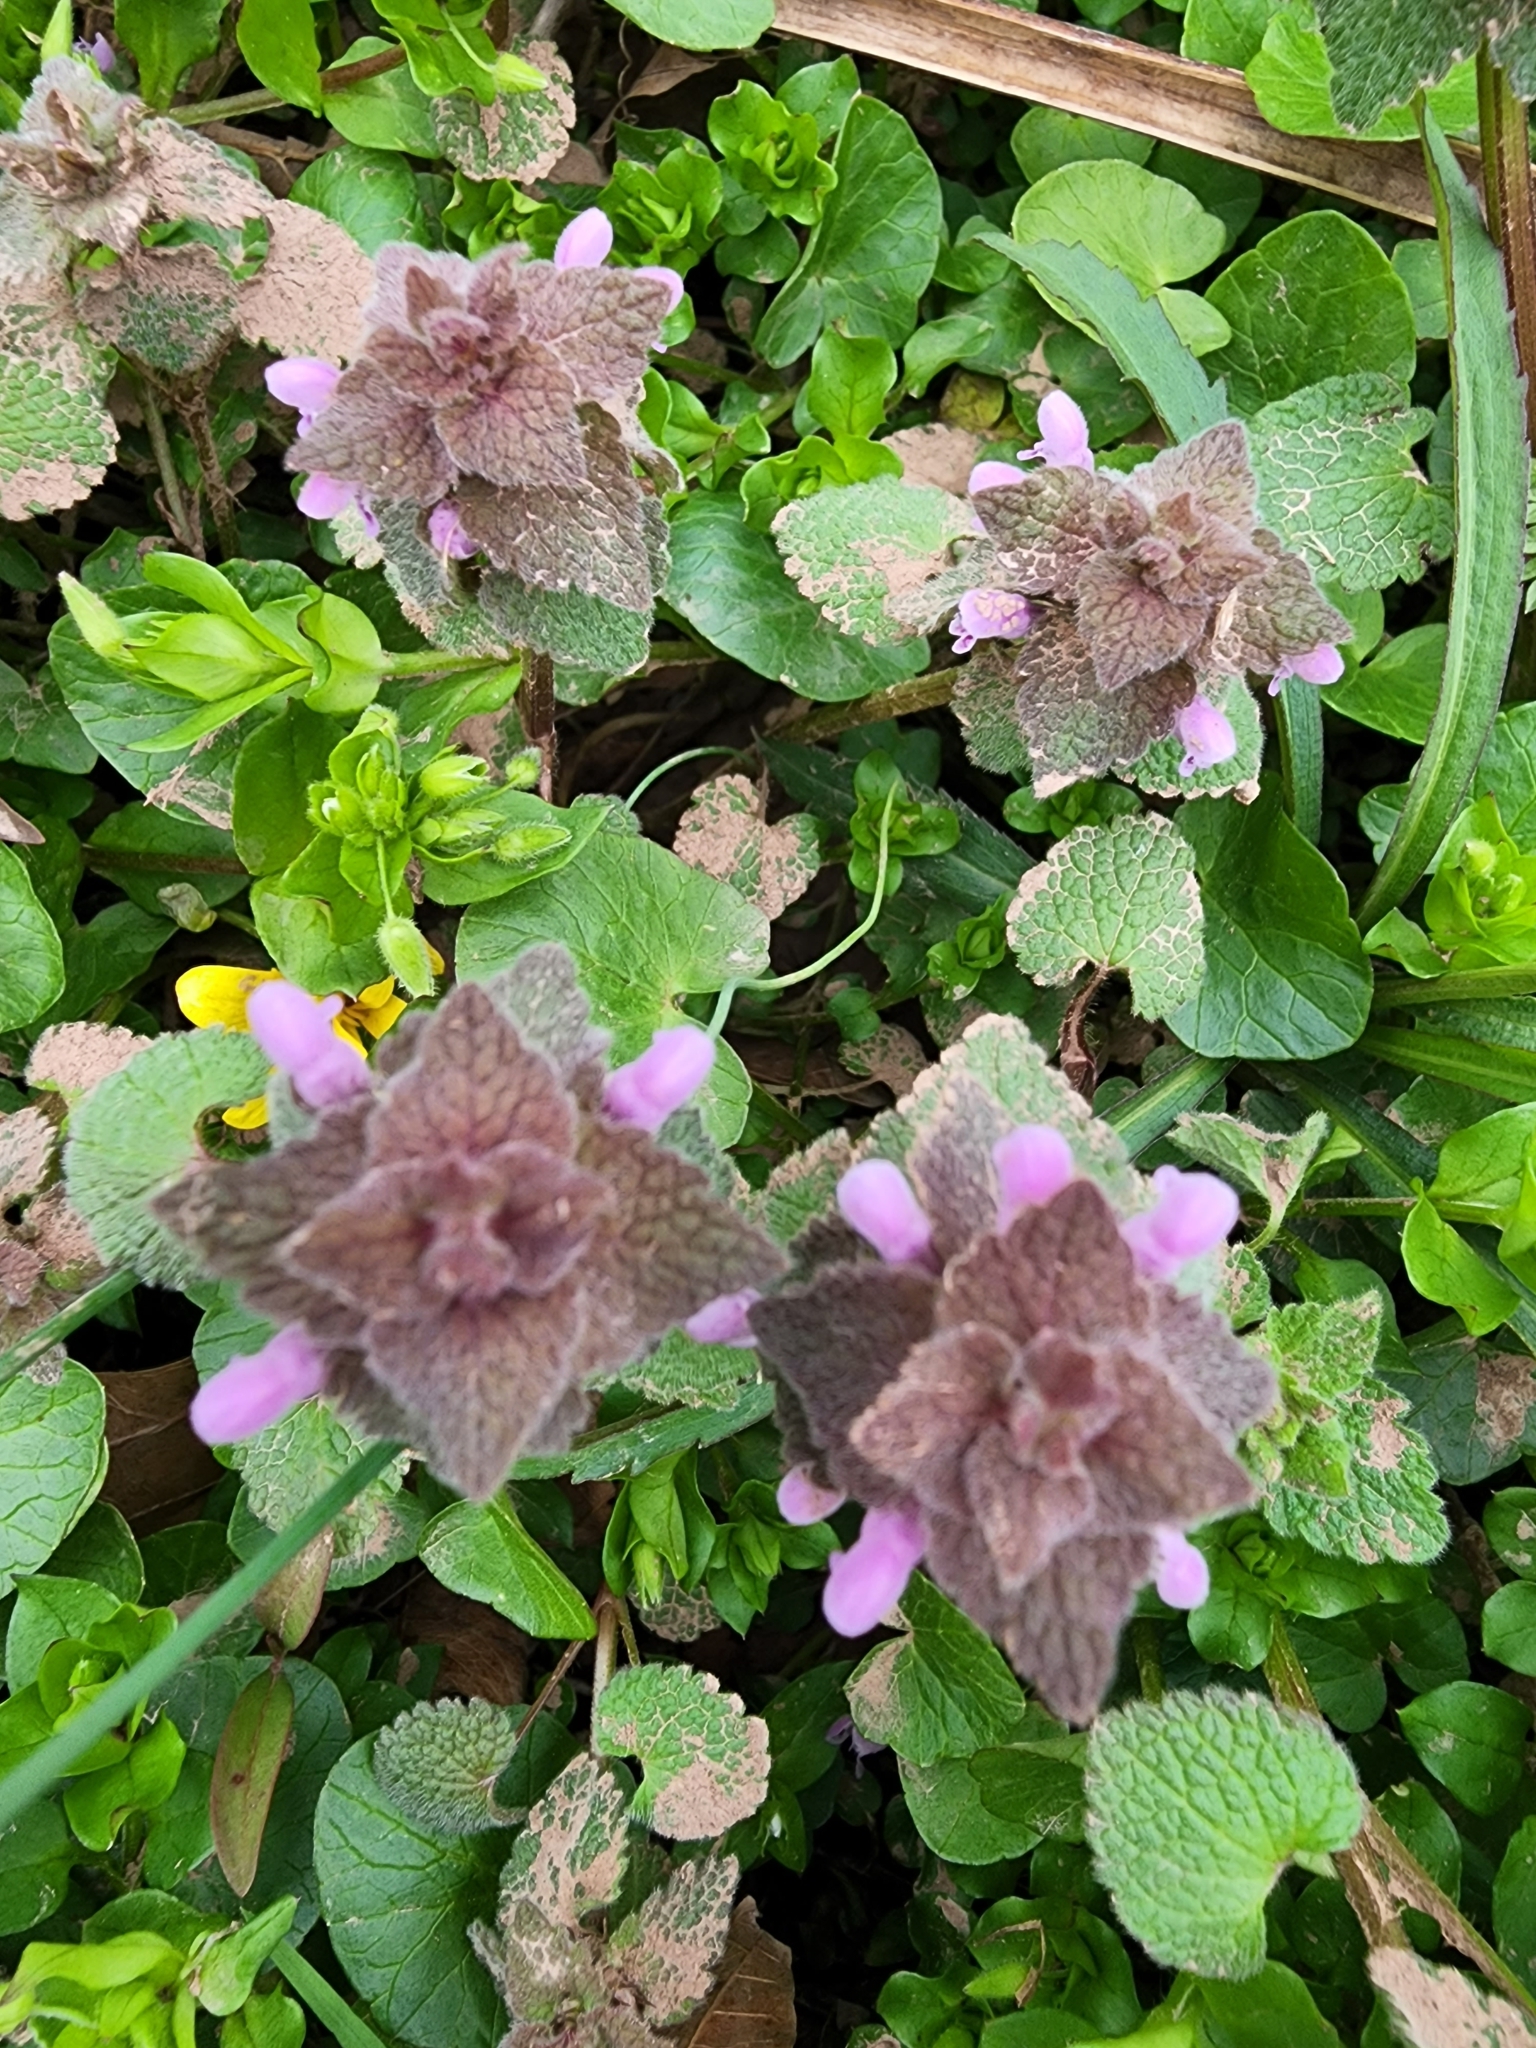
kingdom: Plantae
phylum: Tracheophyta
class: Magnoliopsida
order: Lamiales
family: Lamiaceae
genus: Lamium
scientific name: Lamium purpureum
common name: Red dead-nettle
